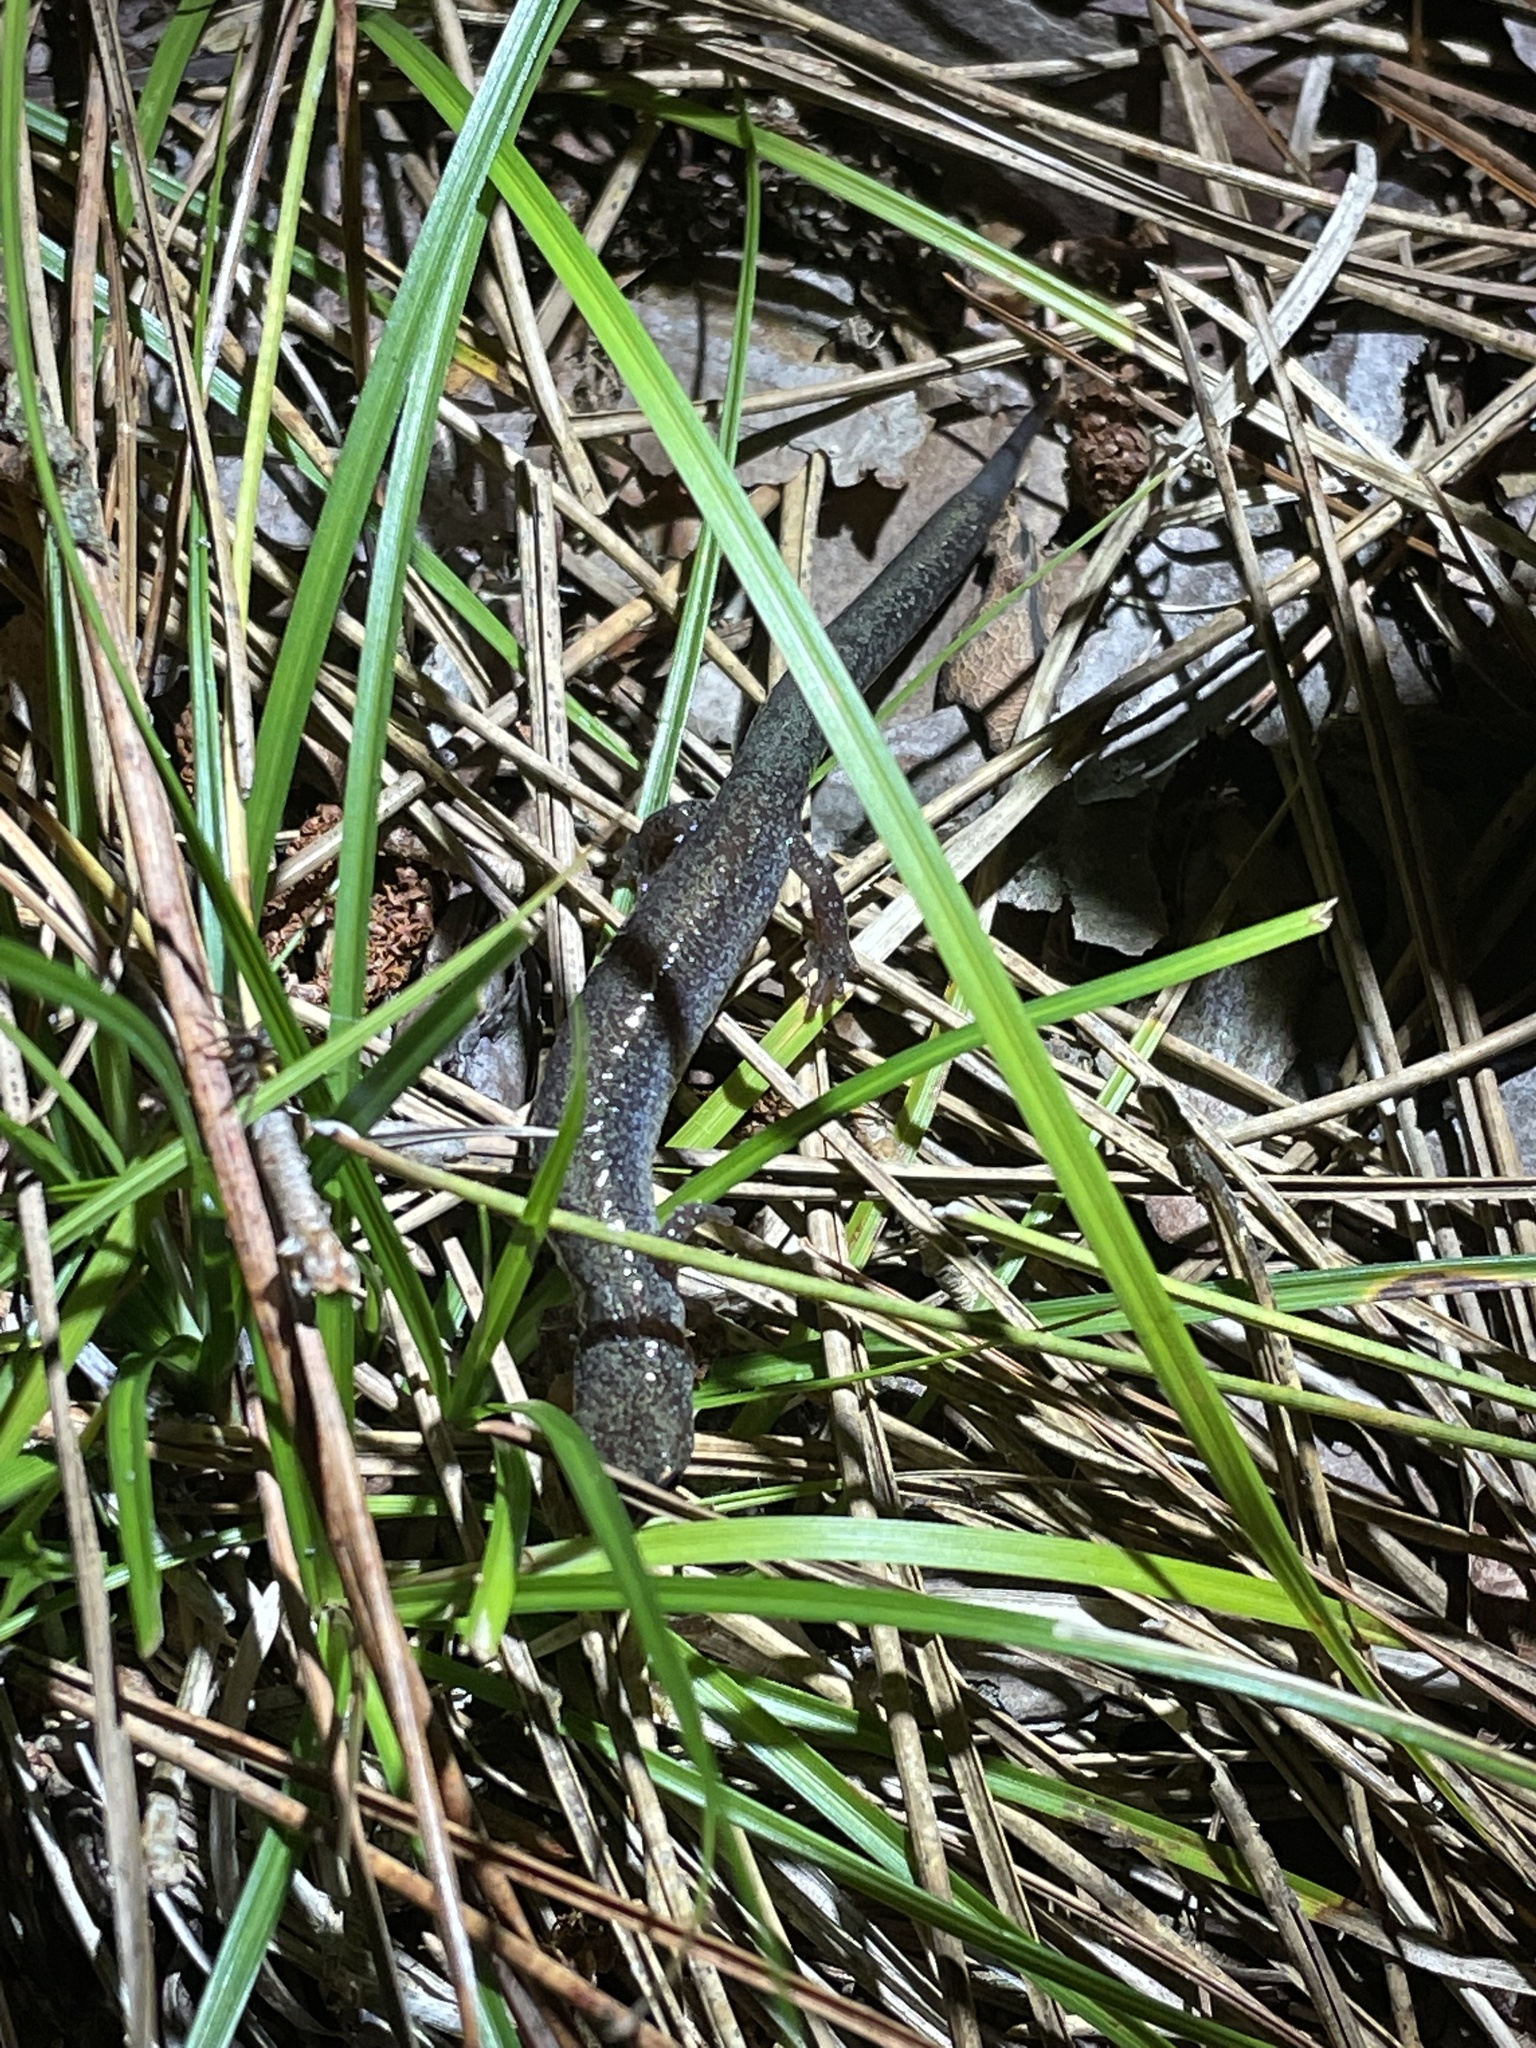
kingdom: Animalia
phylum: Chordata
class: Amphibia
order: Caudata
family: Plethodontidae
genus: Plethodon
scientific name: Plethodon cinereus
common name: Redback salamander
